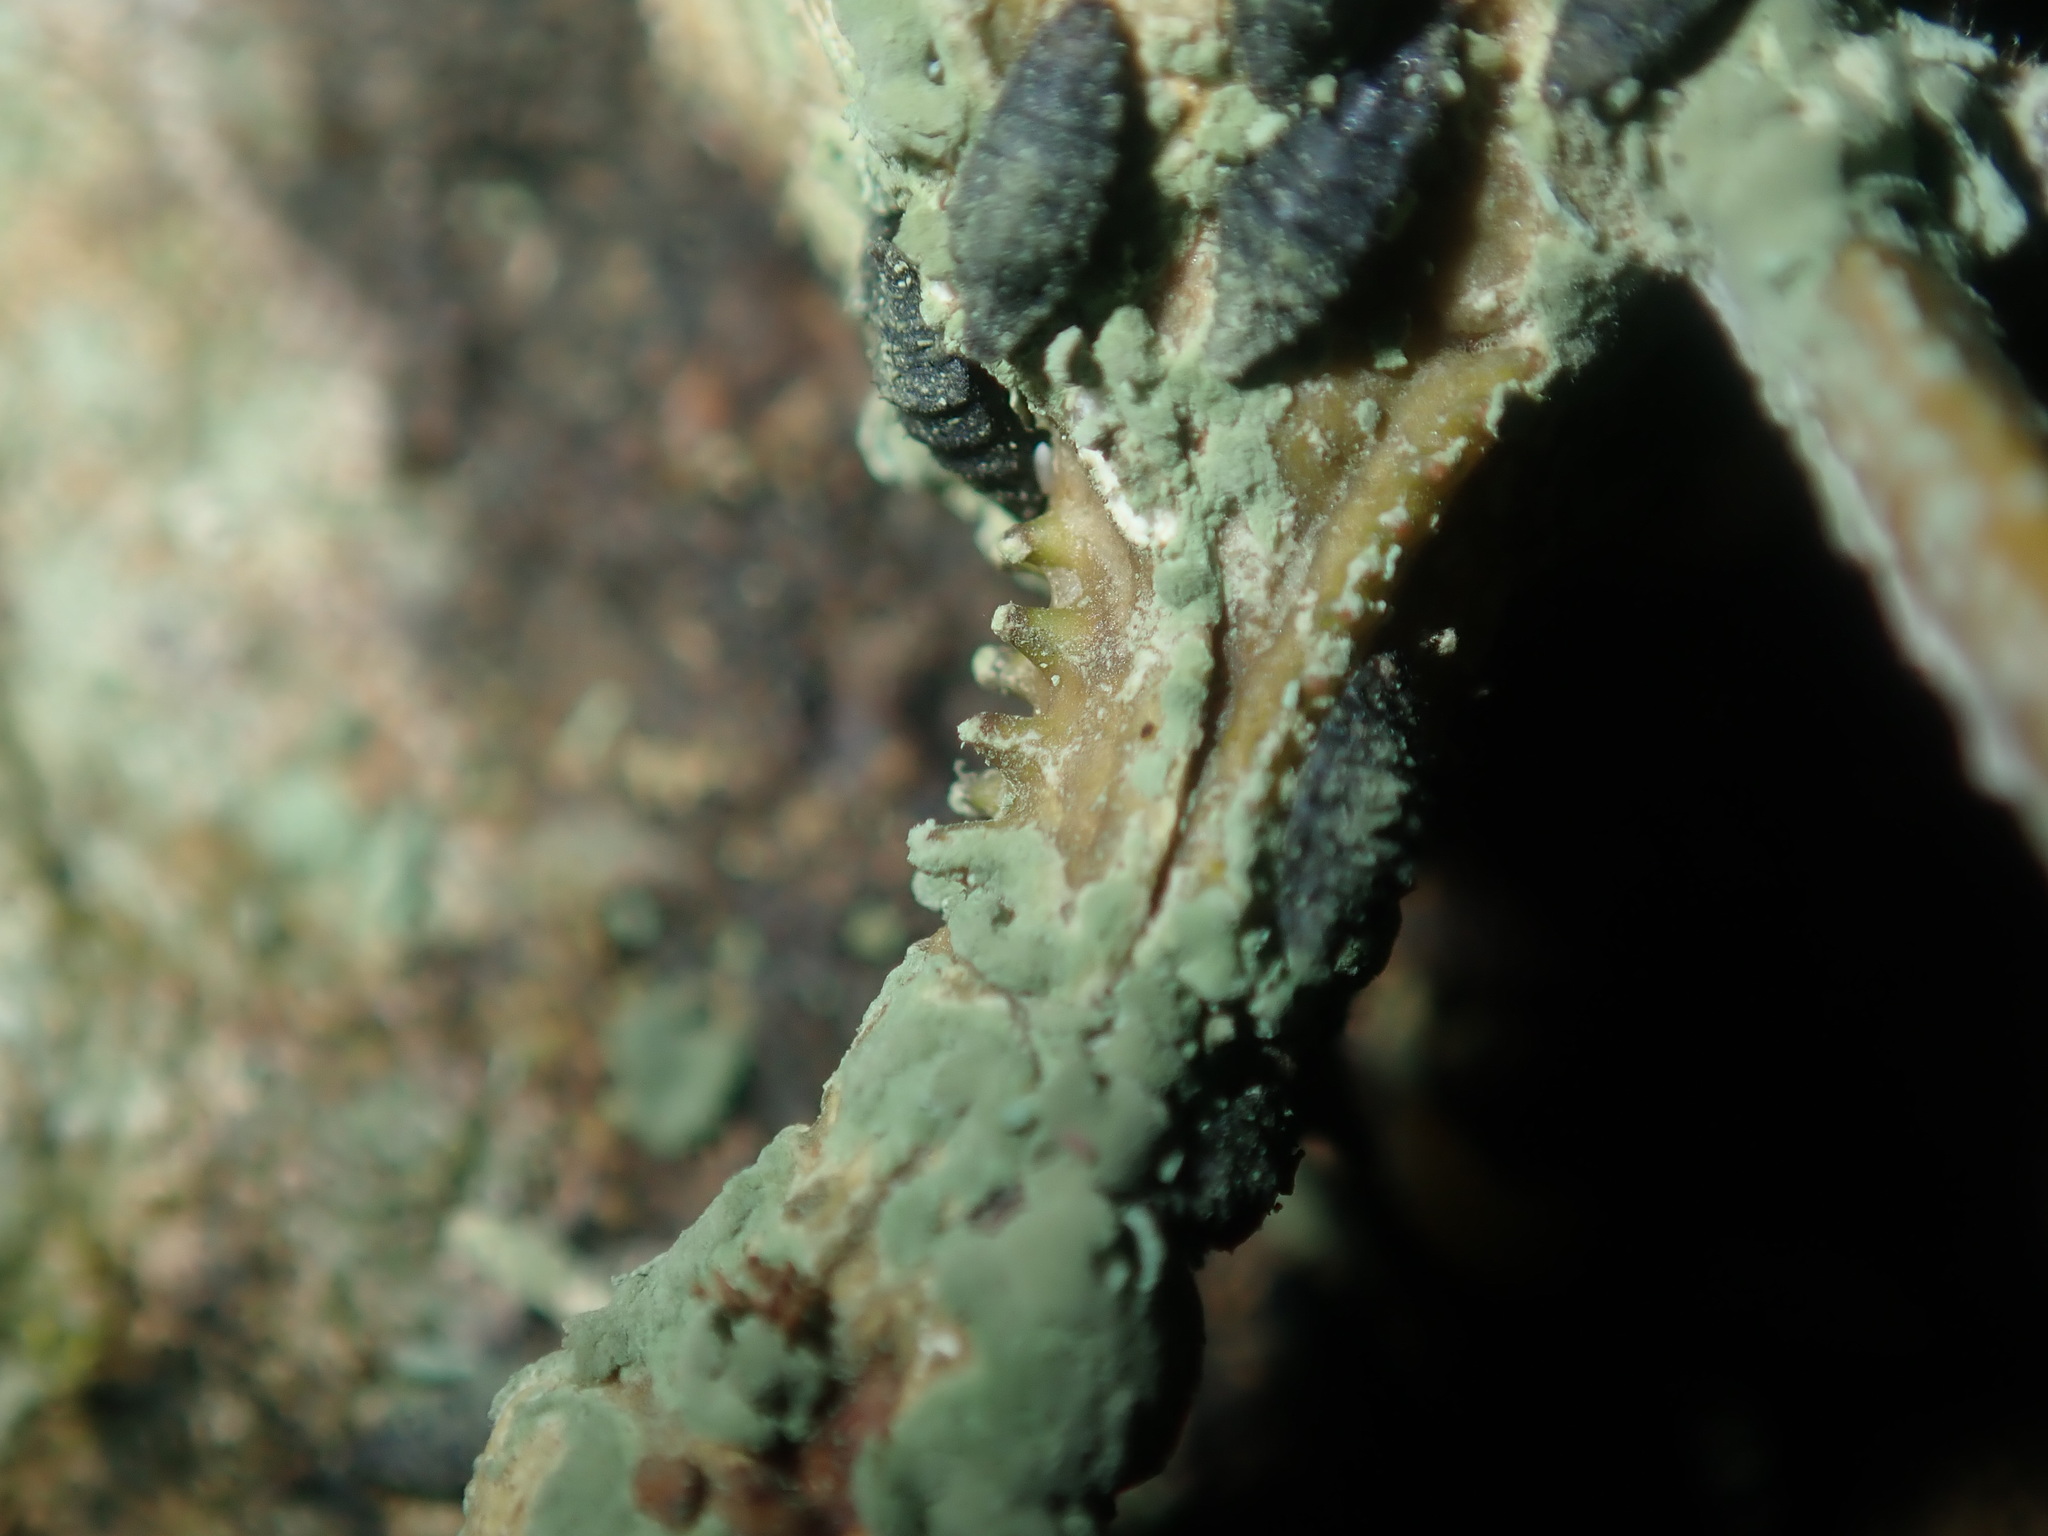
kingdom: Animalia
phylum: Arthropoda
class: Insecta
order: Phasmida
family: Phasmatidae
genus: Podacanthus
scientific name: Podacanthus viridiroseus
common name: Red-winged stick-insect
